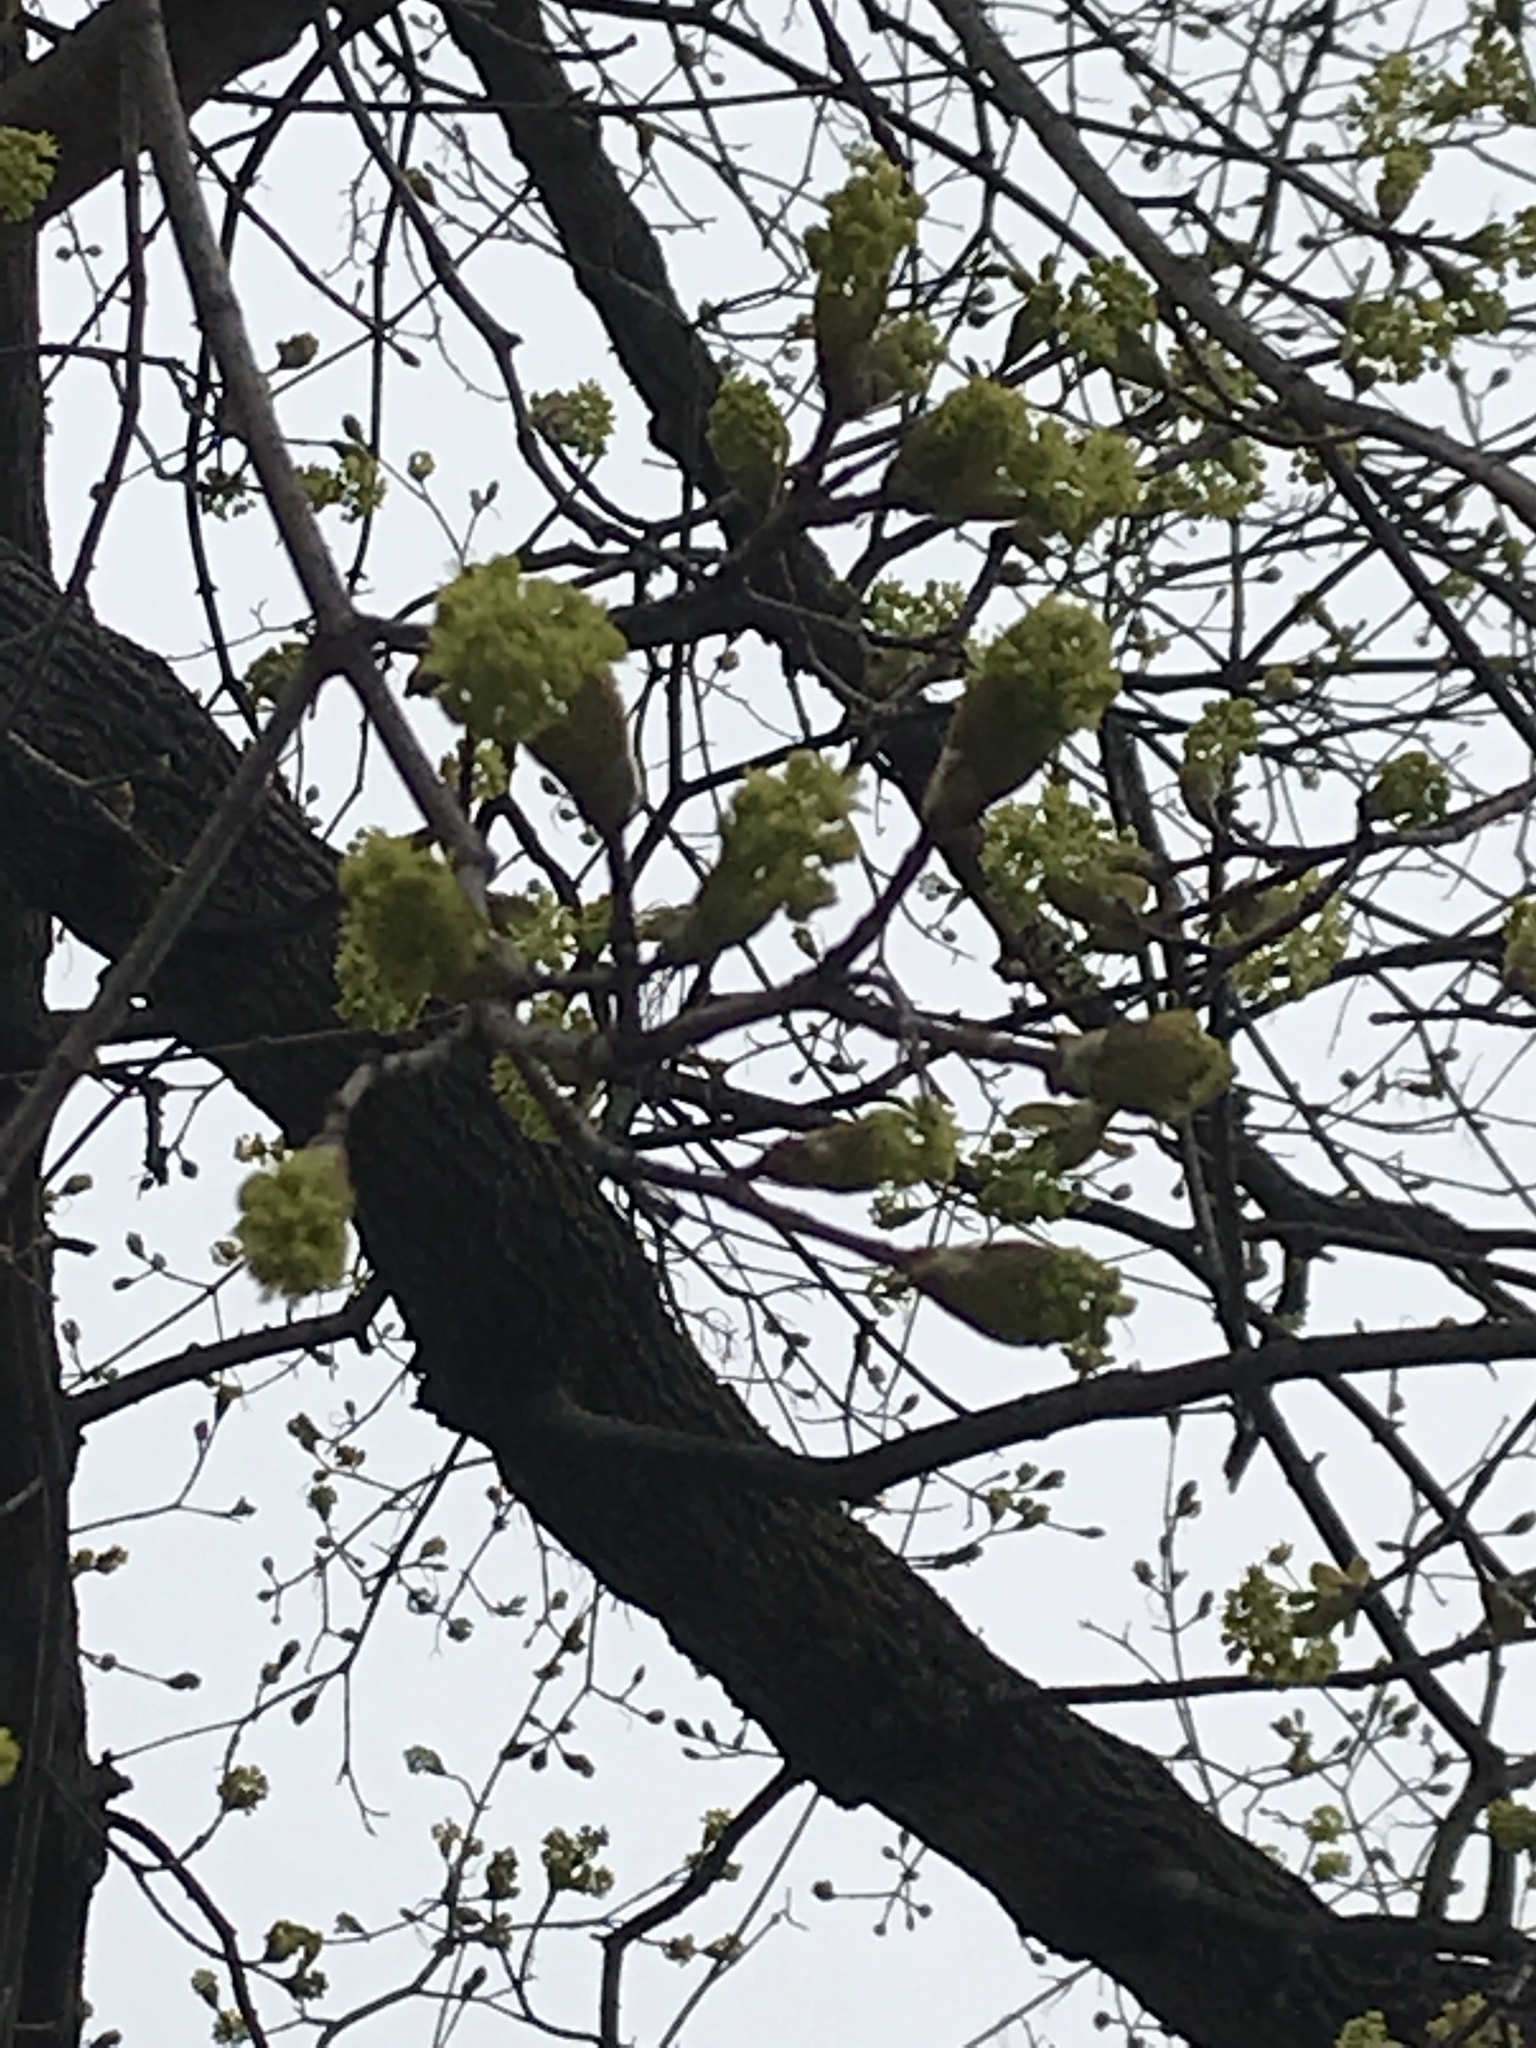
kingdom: Plantae
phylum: Tracheophyta
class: Magnoliopsida
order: Sapindales
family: Sapindaceae
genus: Acer
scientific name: Acer platanoides
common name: Norway maple
